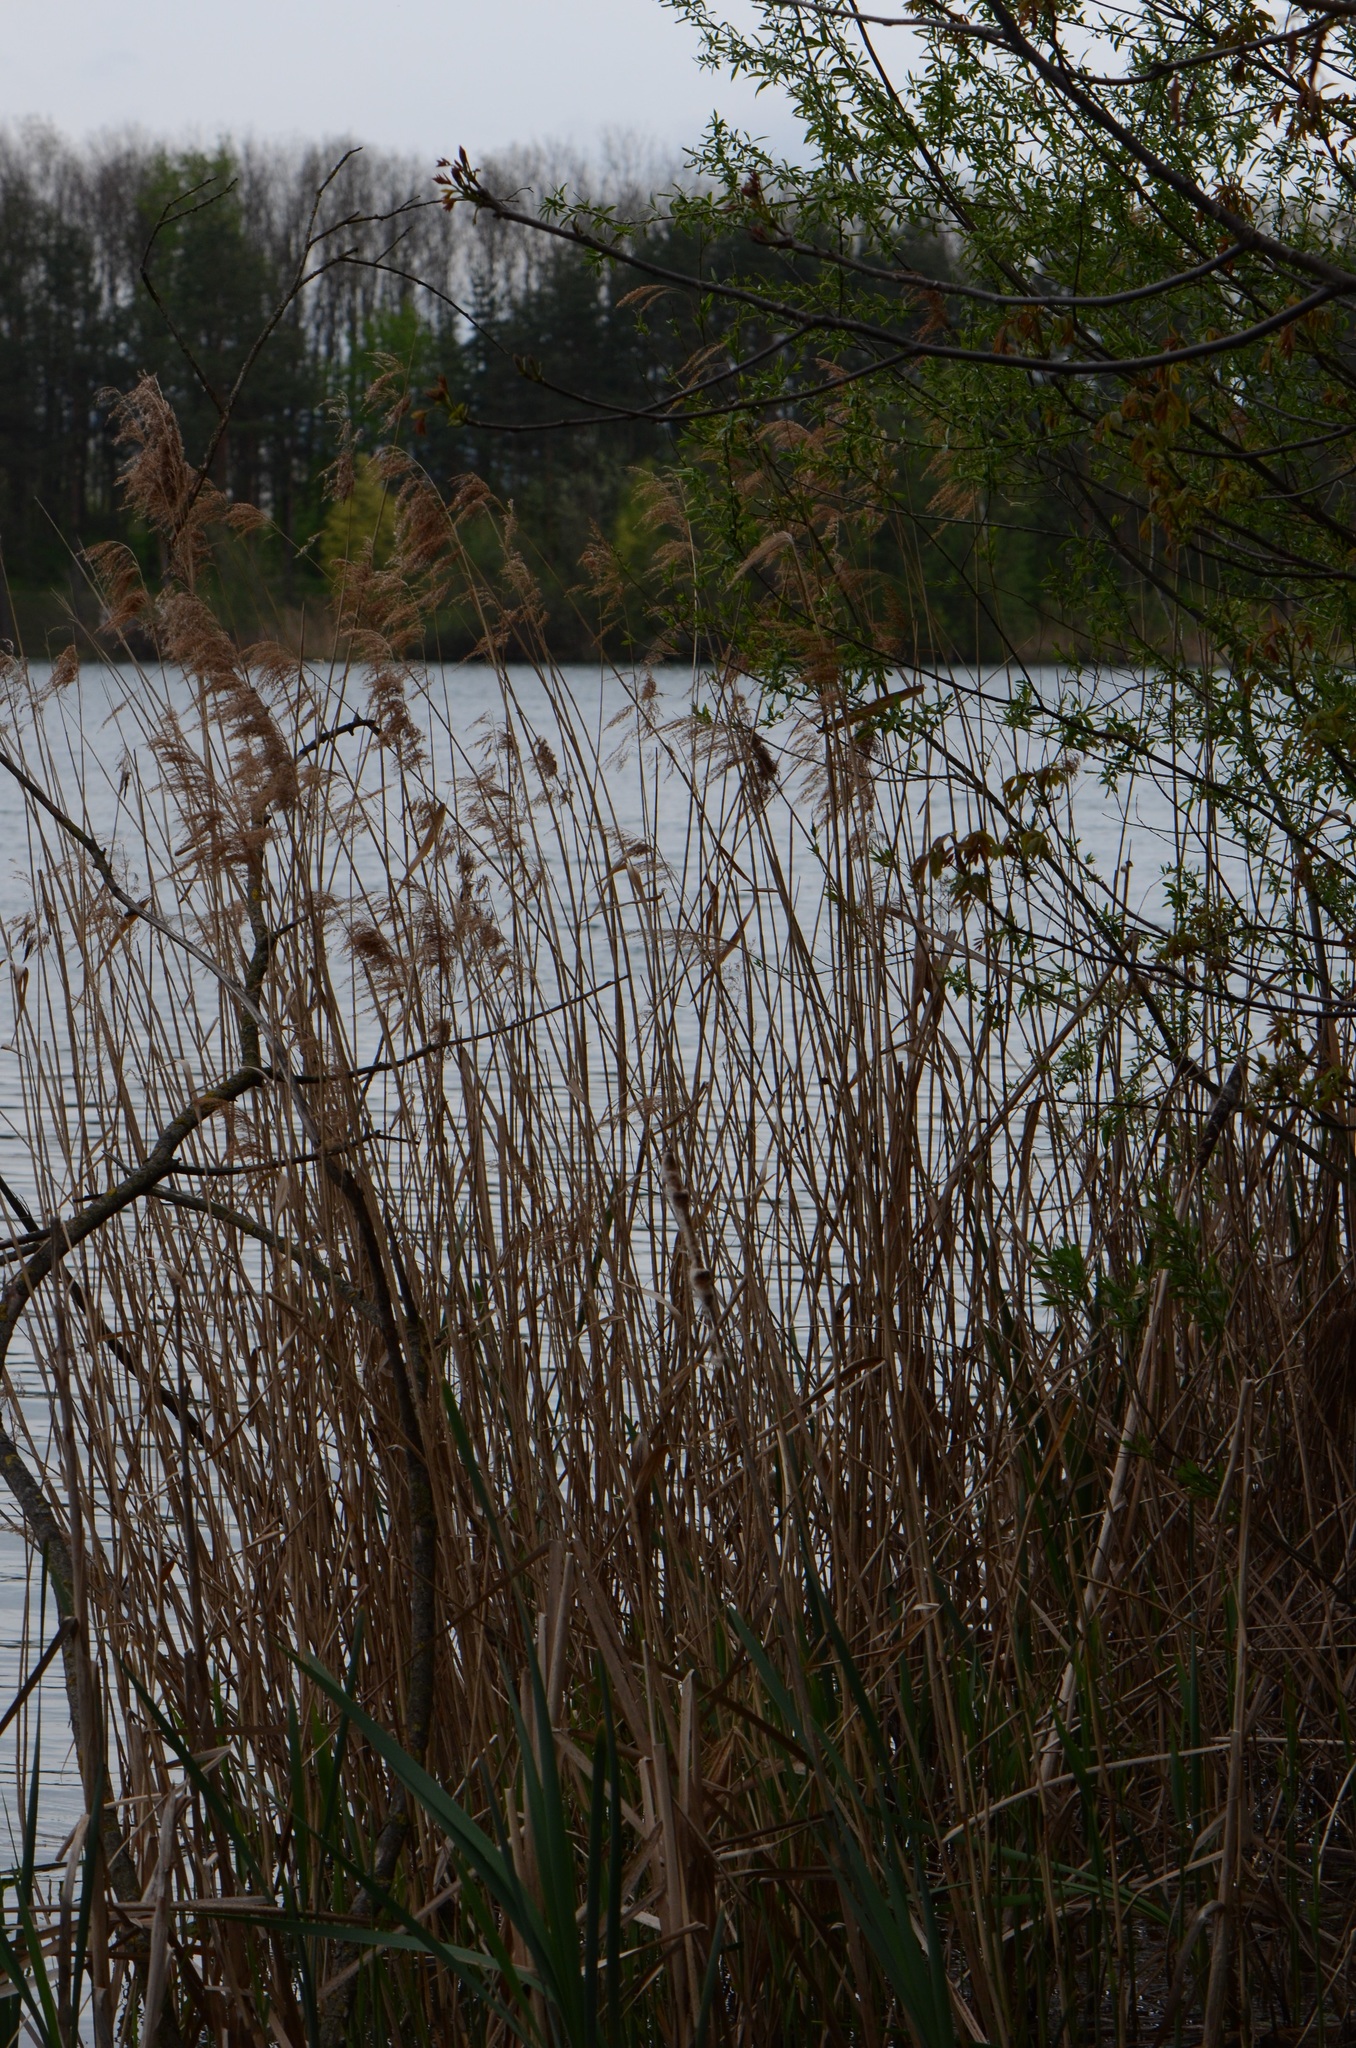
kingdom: Plantae
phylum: Tracheophyta
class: Liliopsida
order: Poales
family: Poaceae
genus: Phragmites
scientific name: Phragmites australis
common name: Common reed
